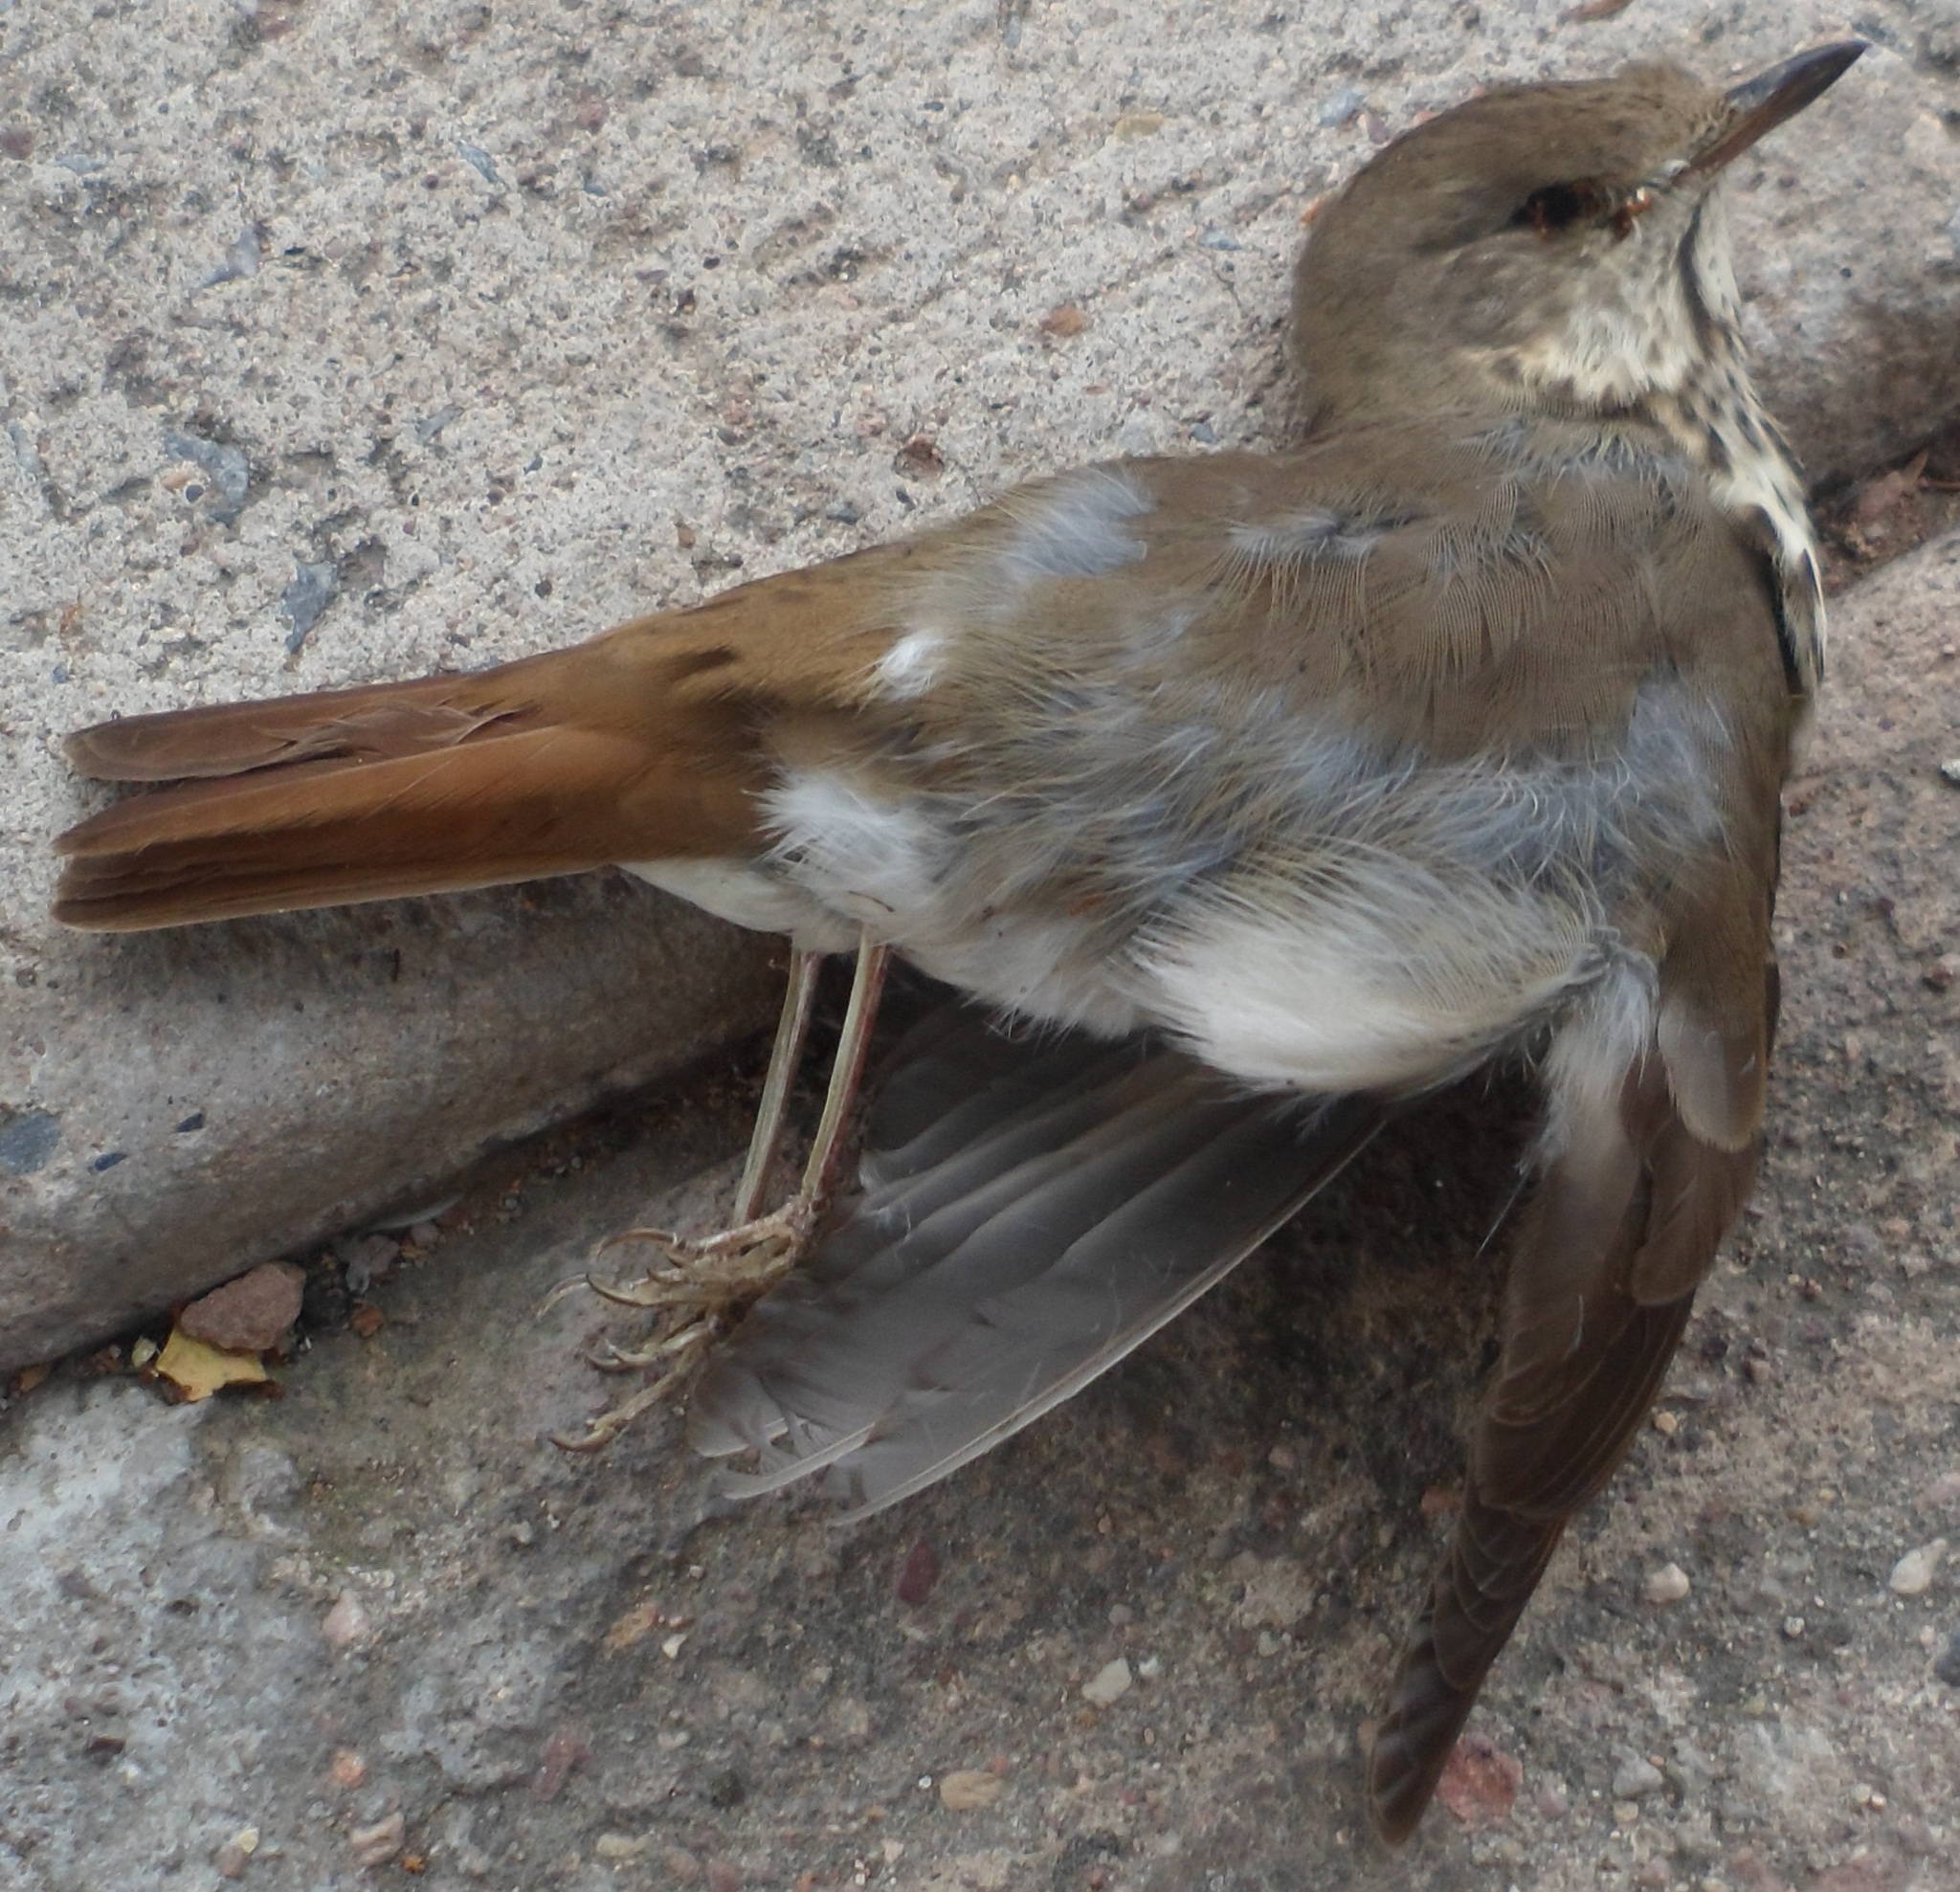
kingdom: Animalia
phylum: Chordata
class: Aves
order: Passeriformes
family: Turdidae
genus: Catharus
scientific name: Catharus guttatus
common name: Hermit thrush
